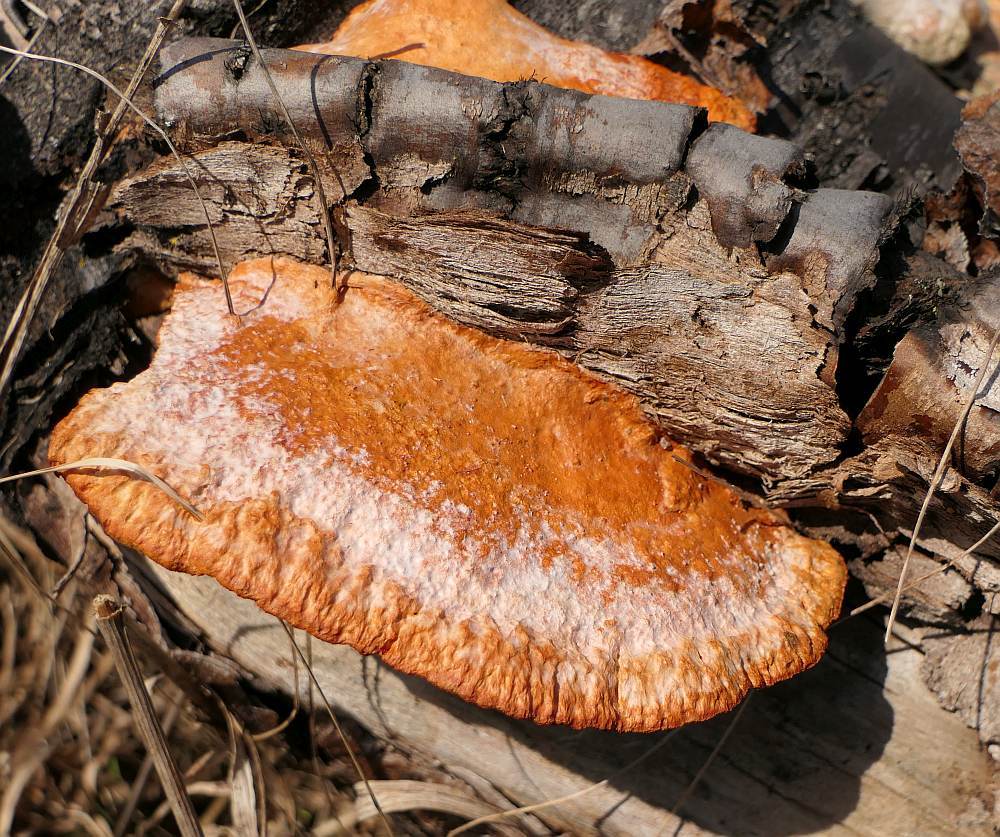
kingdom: Fungi
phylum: Basidiomycota
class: Agaricomycetes
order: Polyporales
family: Polyporaceae
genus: Trametes
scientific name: Trametes cinnabarina
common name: Northern cinnabar polypore
